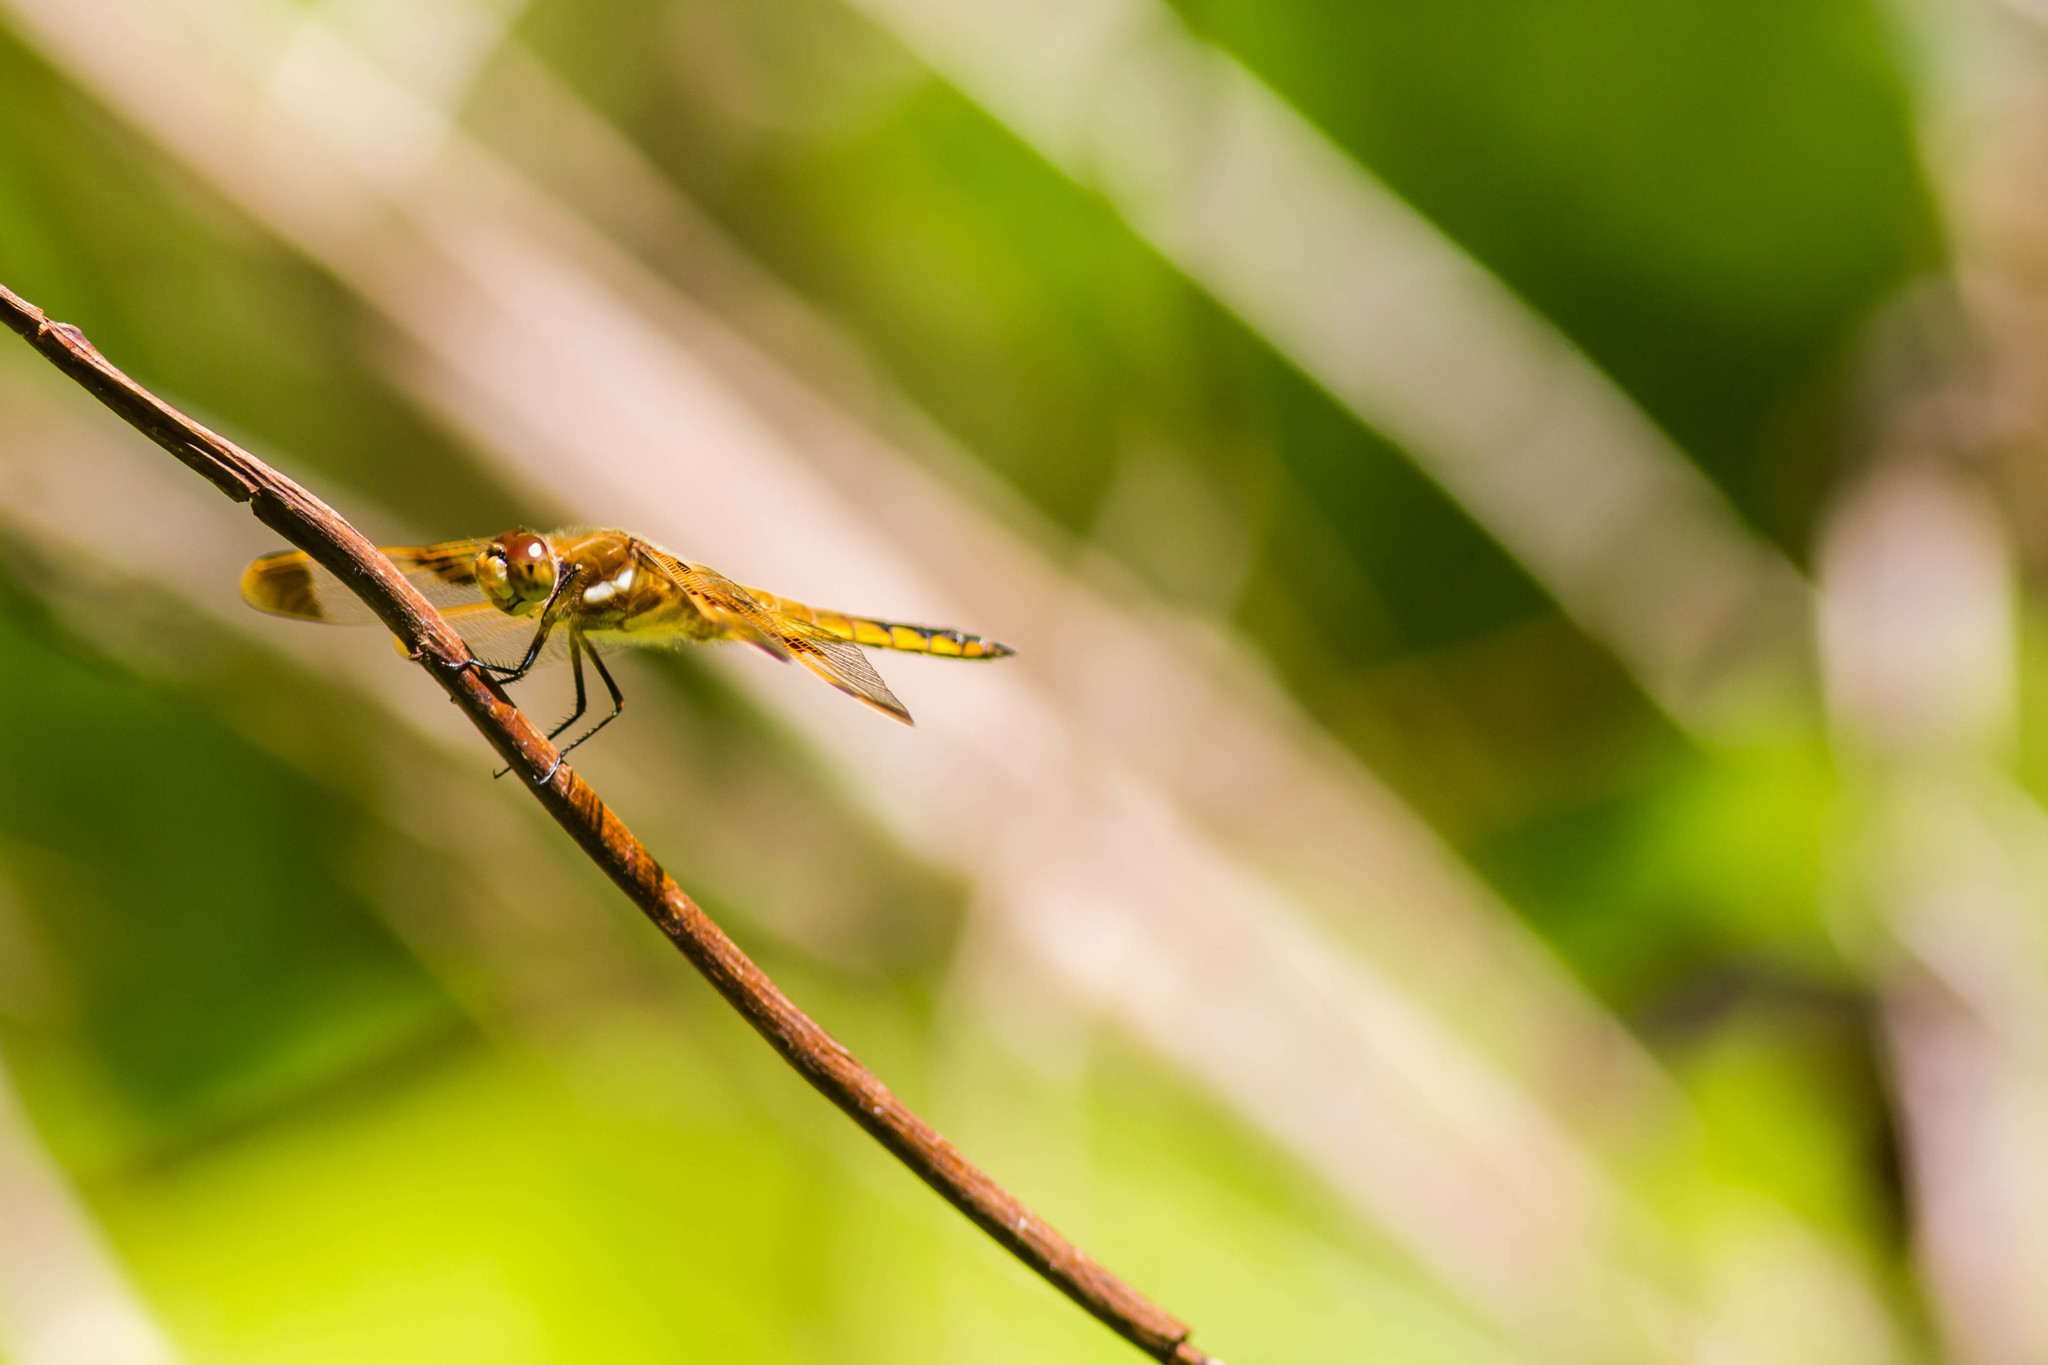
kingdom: Animalia
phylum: Arthropoda
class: Insecta
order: Odonata
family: Libellulidae
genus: Libellula
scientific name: Libellula semifasciata
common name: Painted skimmer
